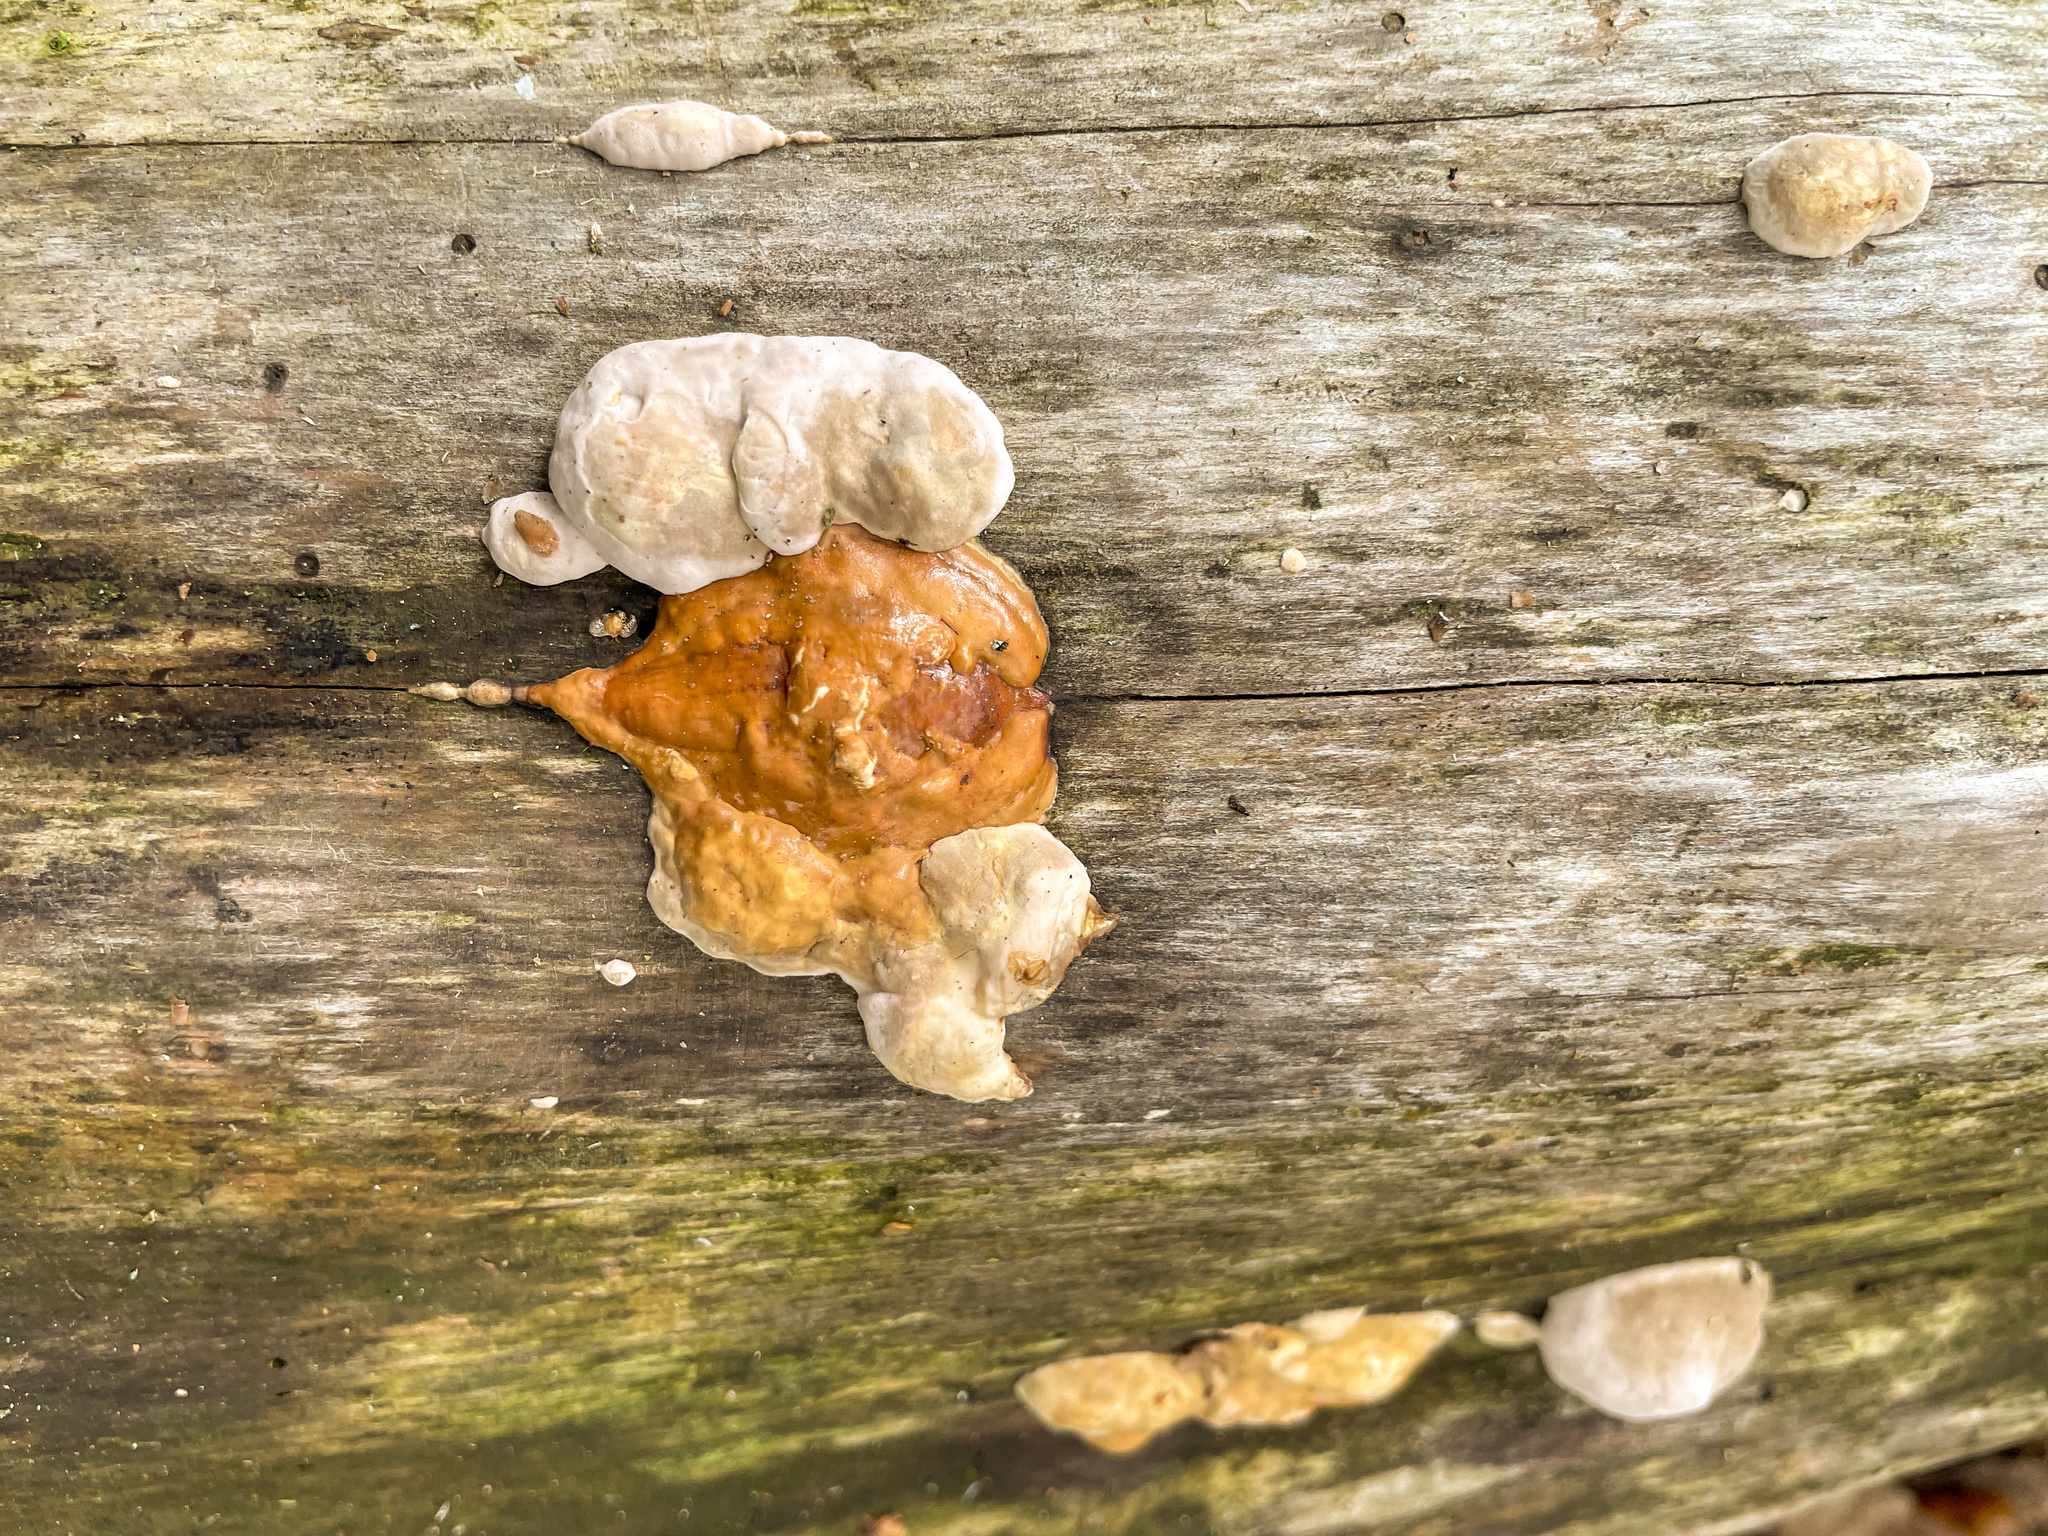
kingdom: Fungi
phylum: Basidiomycota
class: Agaricomycetes
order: Polyporales
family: Fomitopsidaceae
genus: Fomitopsis
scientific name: Fomitopsis pinicola
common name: Red-belted bracket
